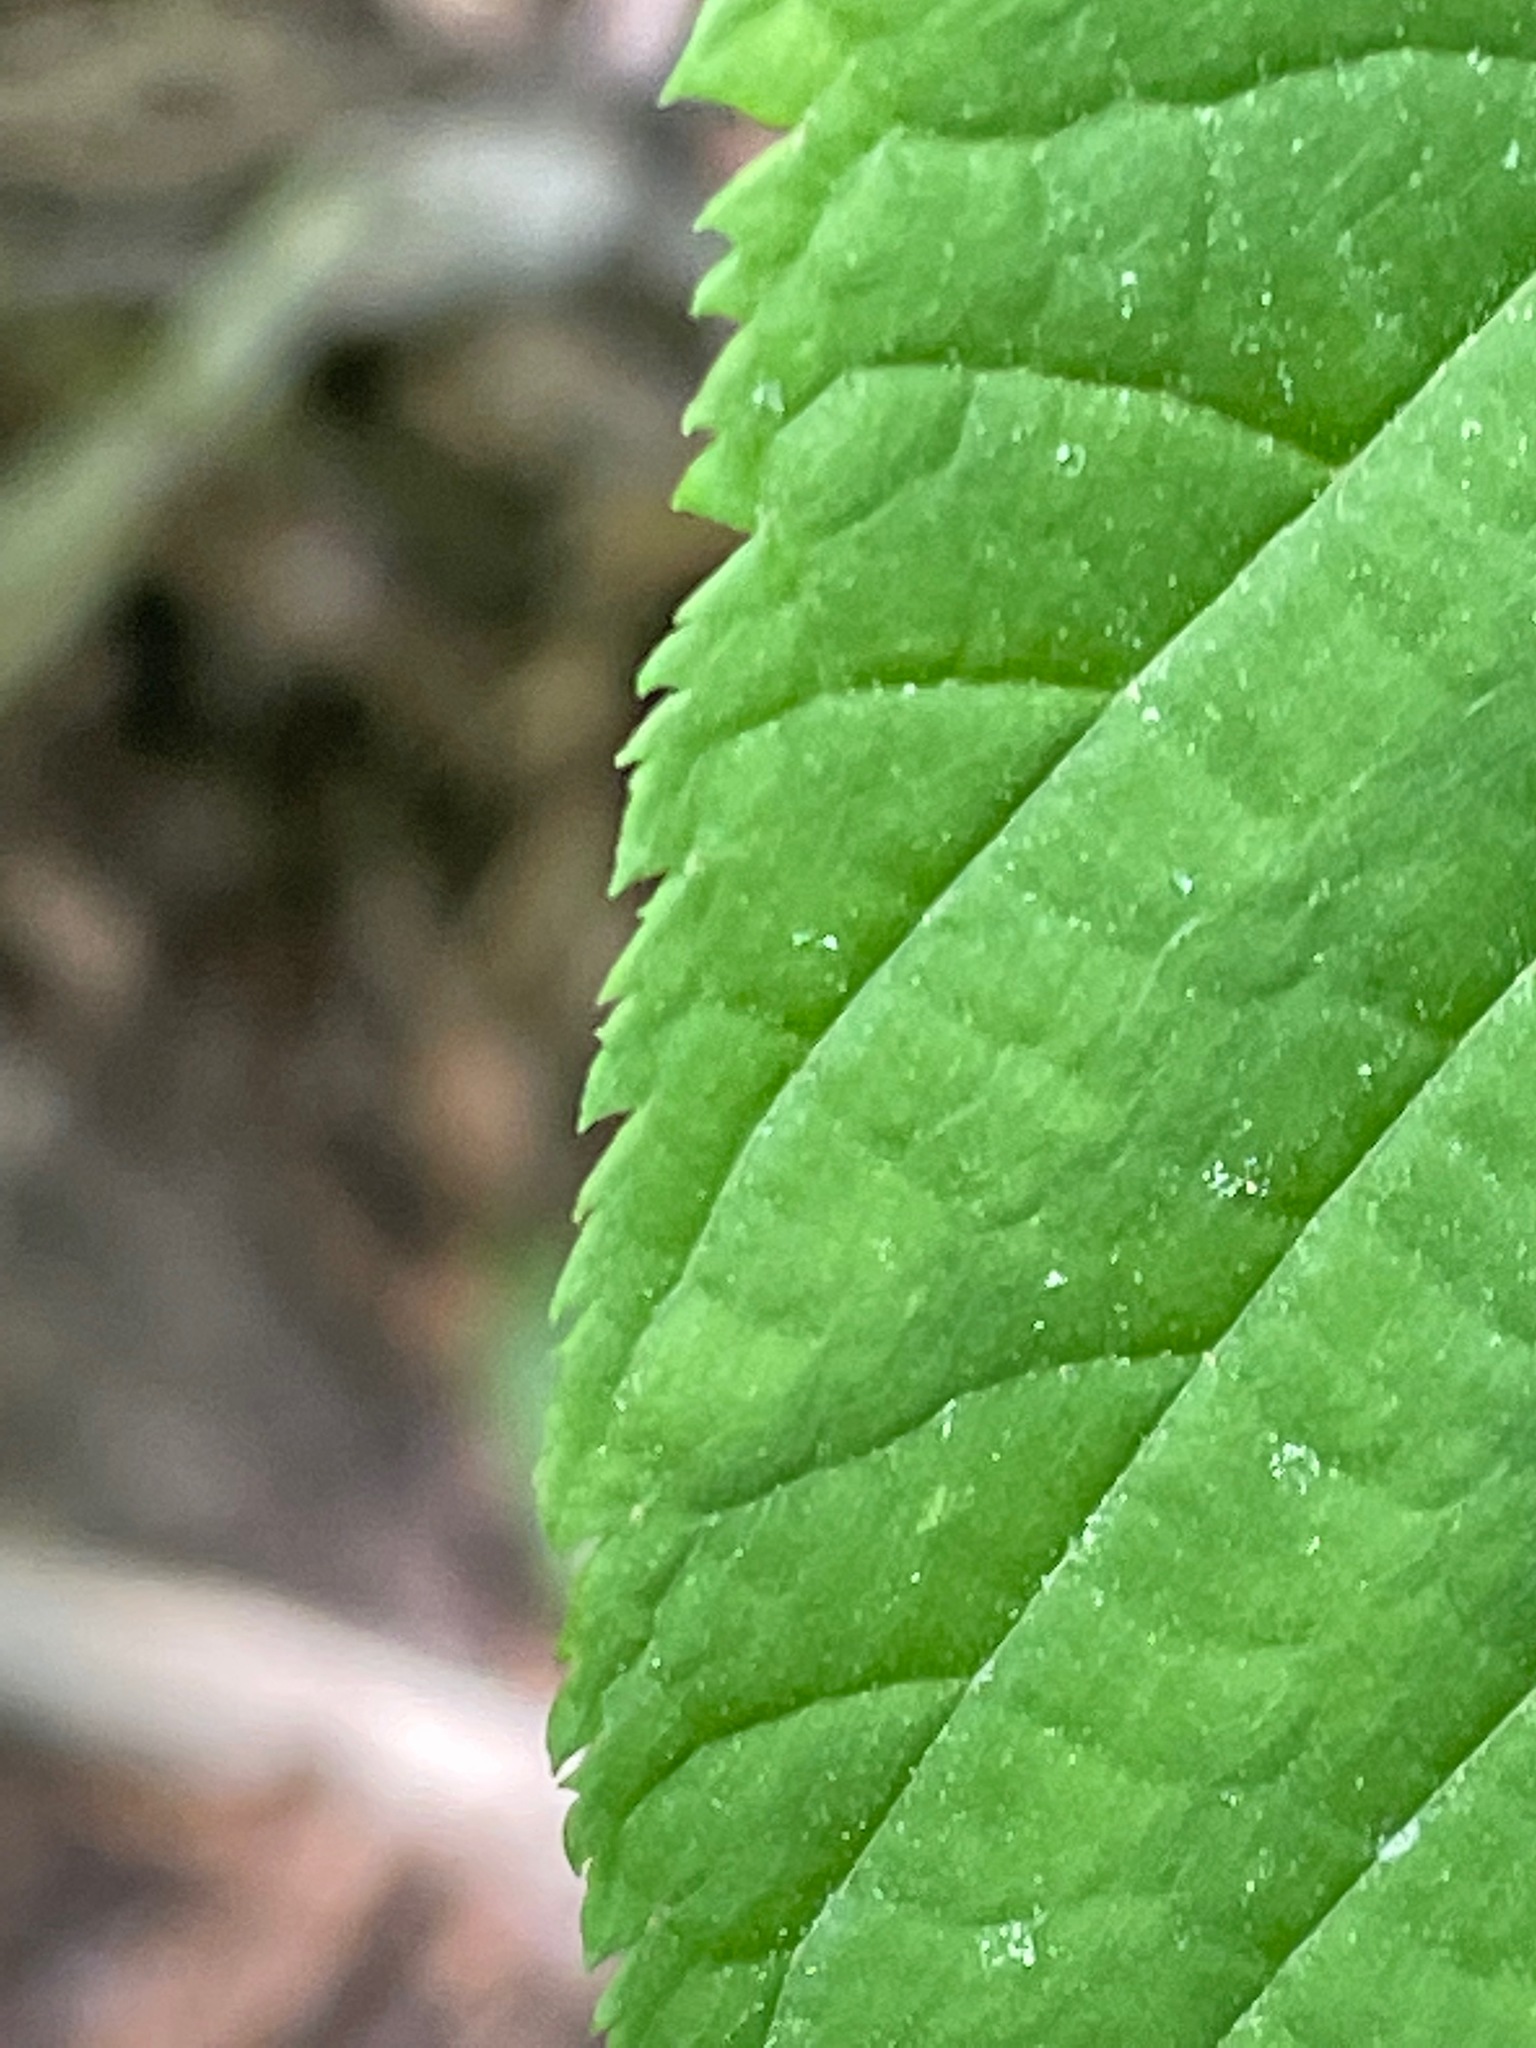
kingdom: Plantae
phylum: Tracheophyta
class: Magnoliopsida
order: Sapindales
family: Sapindaceae
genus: Acer
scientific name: Acer pensylvanicum
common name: Moosewood
